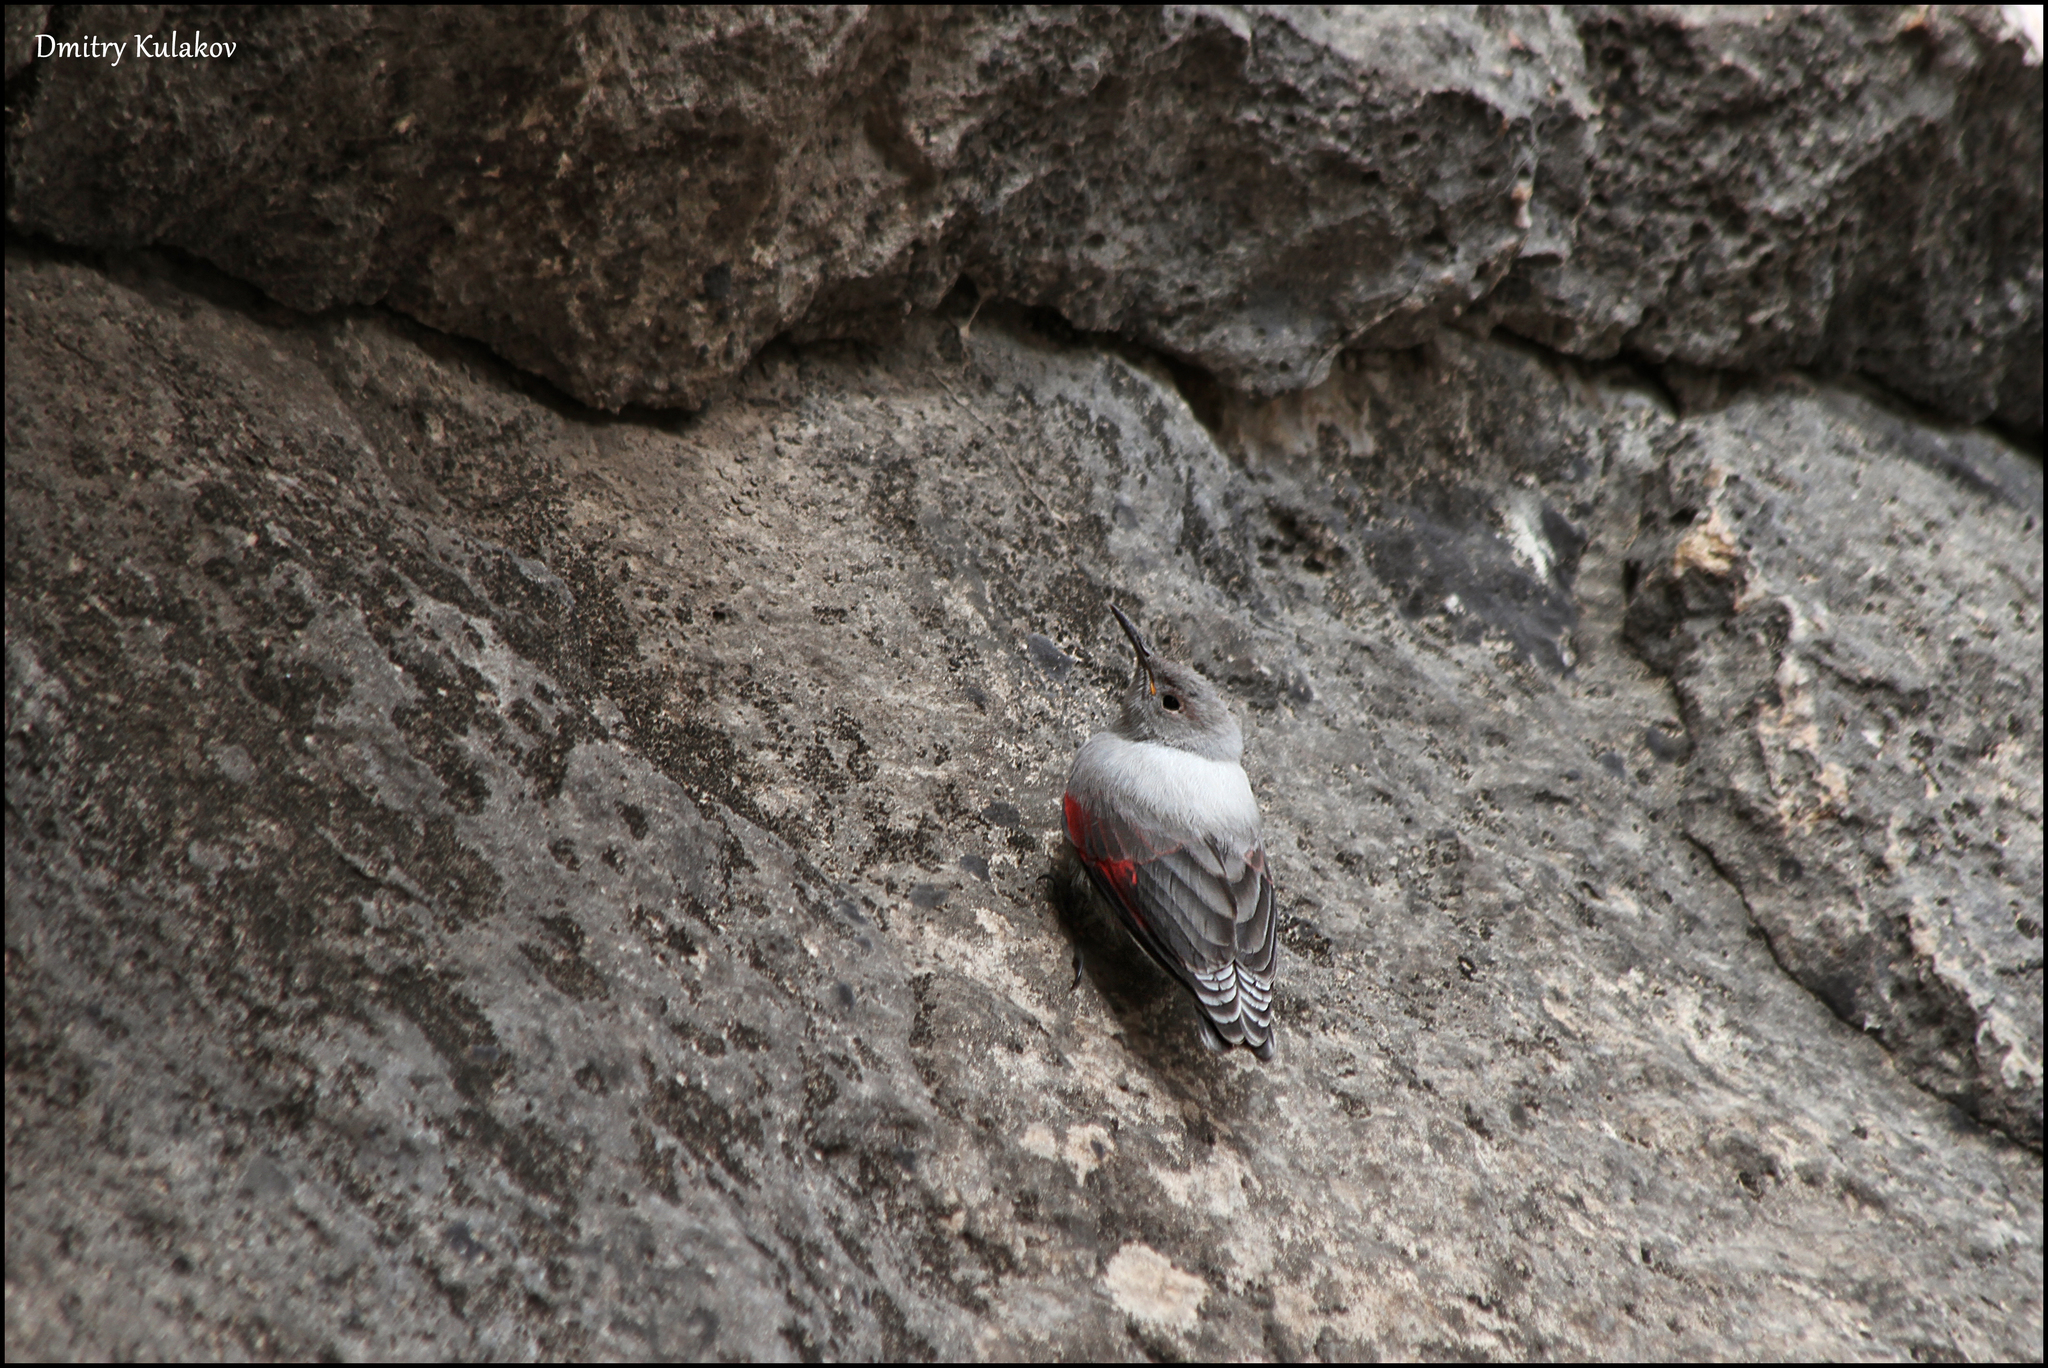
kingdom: Animalia
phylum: Chordata
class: Aves
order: Passeriformes
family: Tichodromidae
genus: Tichodroma
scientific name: Tichodroma muraria
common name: Wallcreeper
